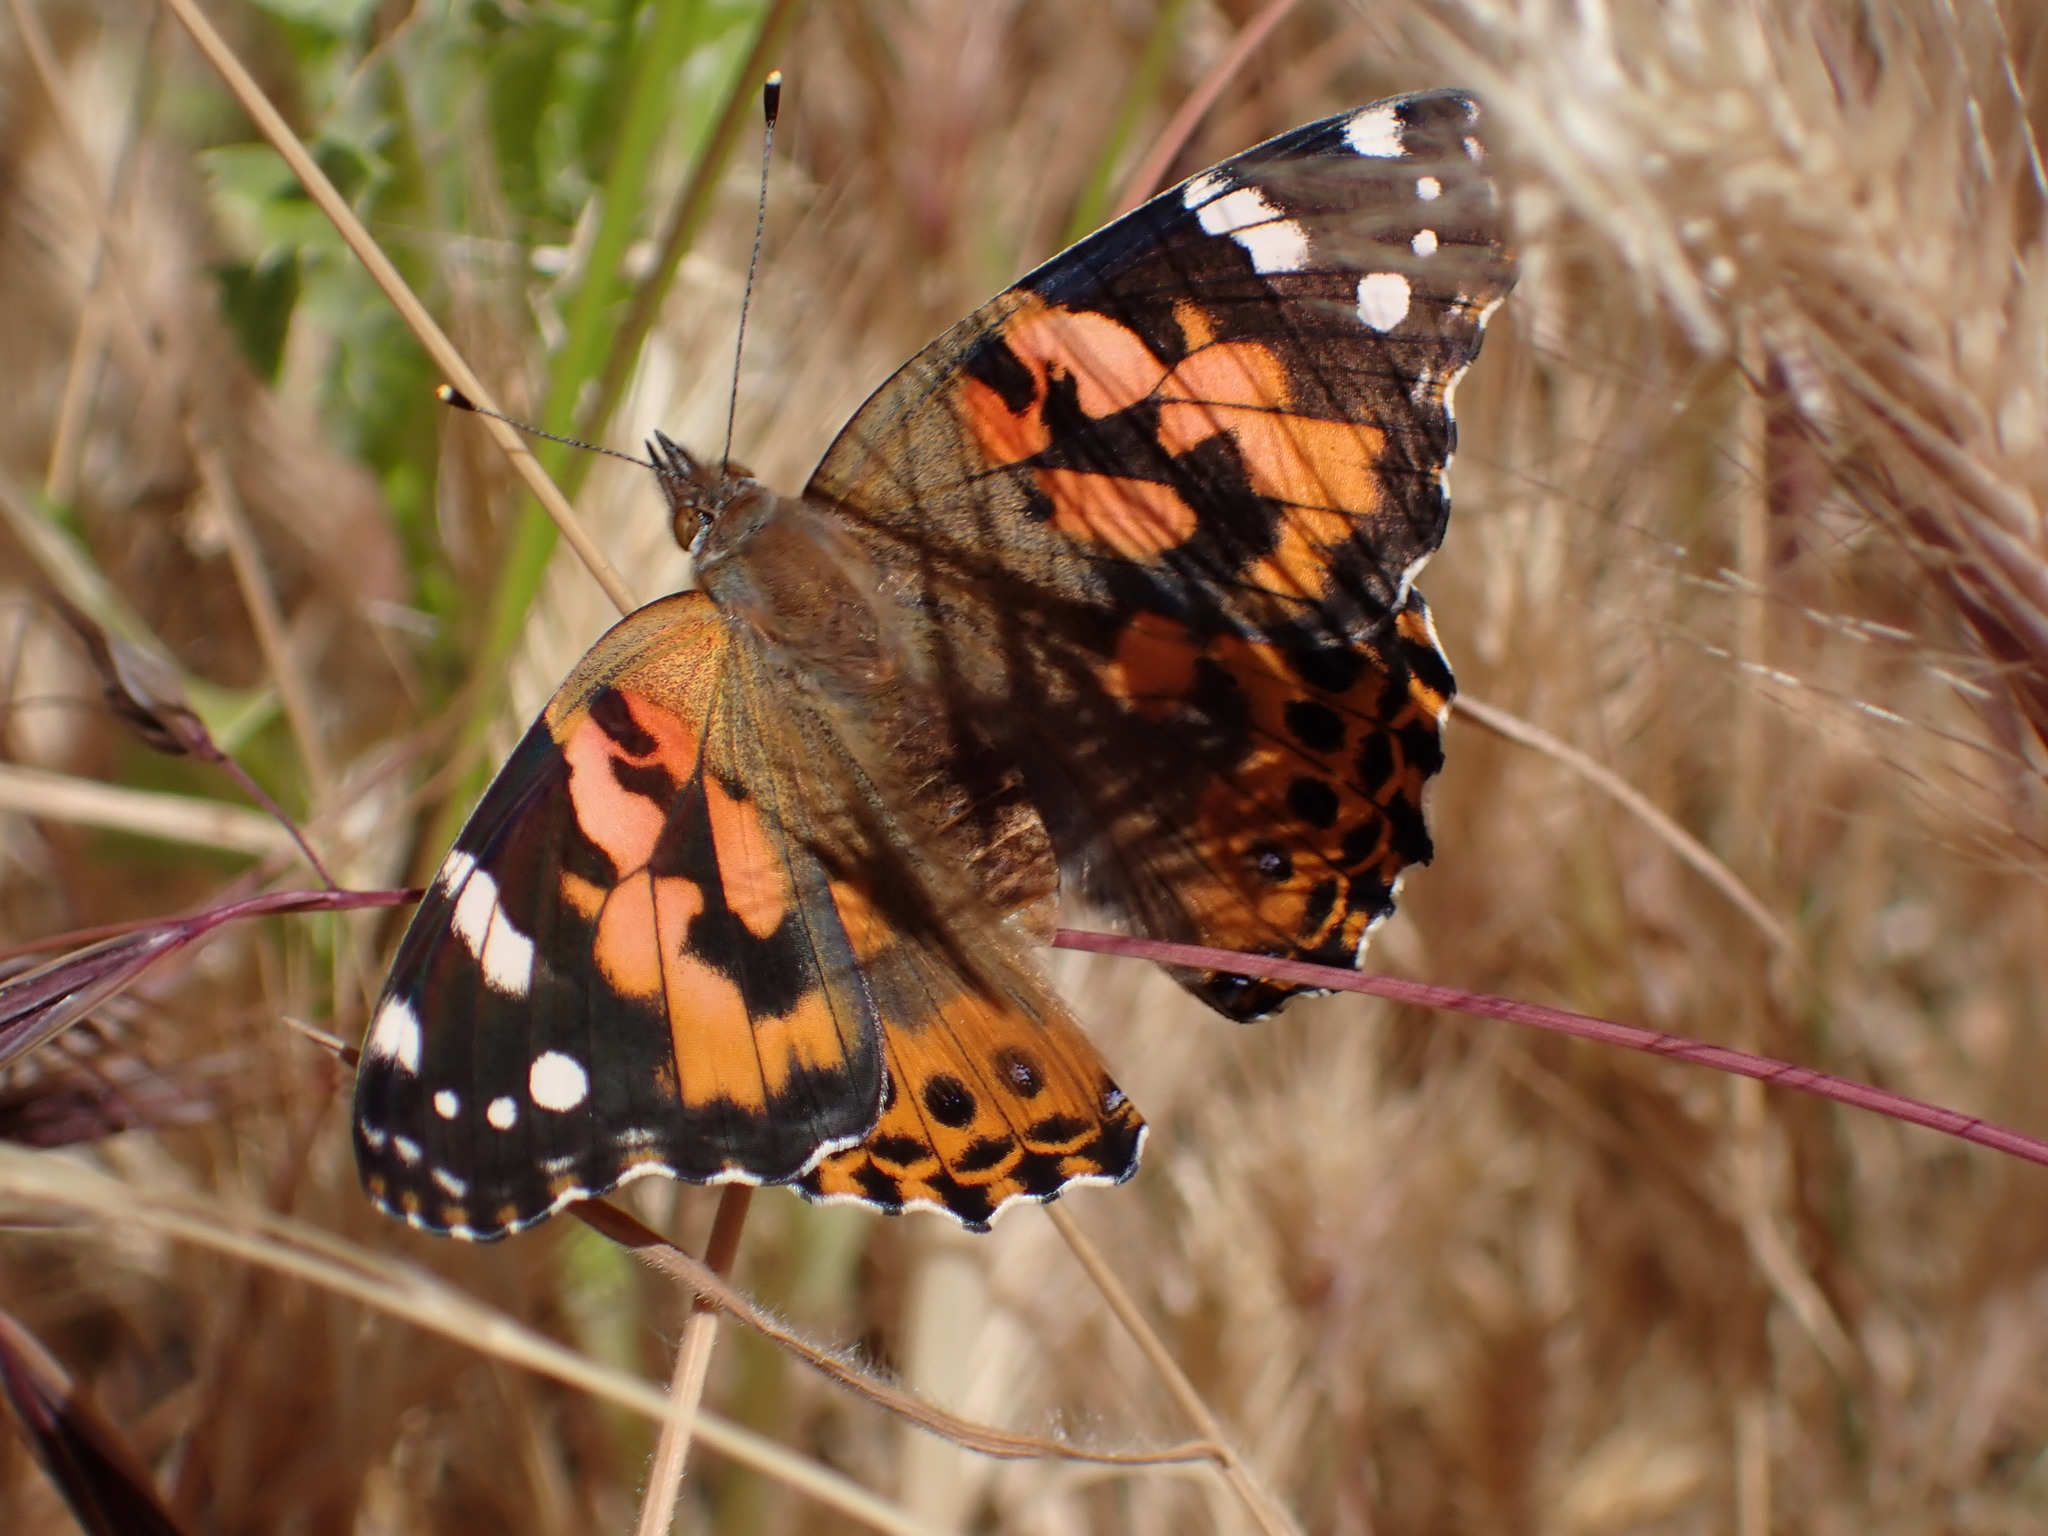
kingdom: Animalia
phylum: Arthropoda
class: Insecta
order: Lepidoptera
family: Nymphalidae
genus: Vanessa
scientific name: Vanessa cardui
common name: Painted lady
